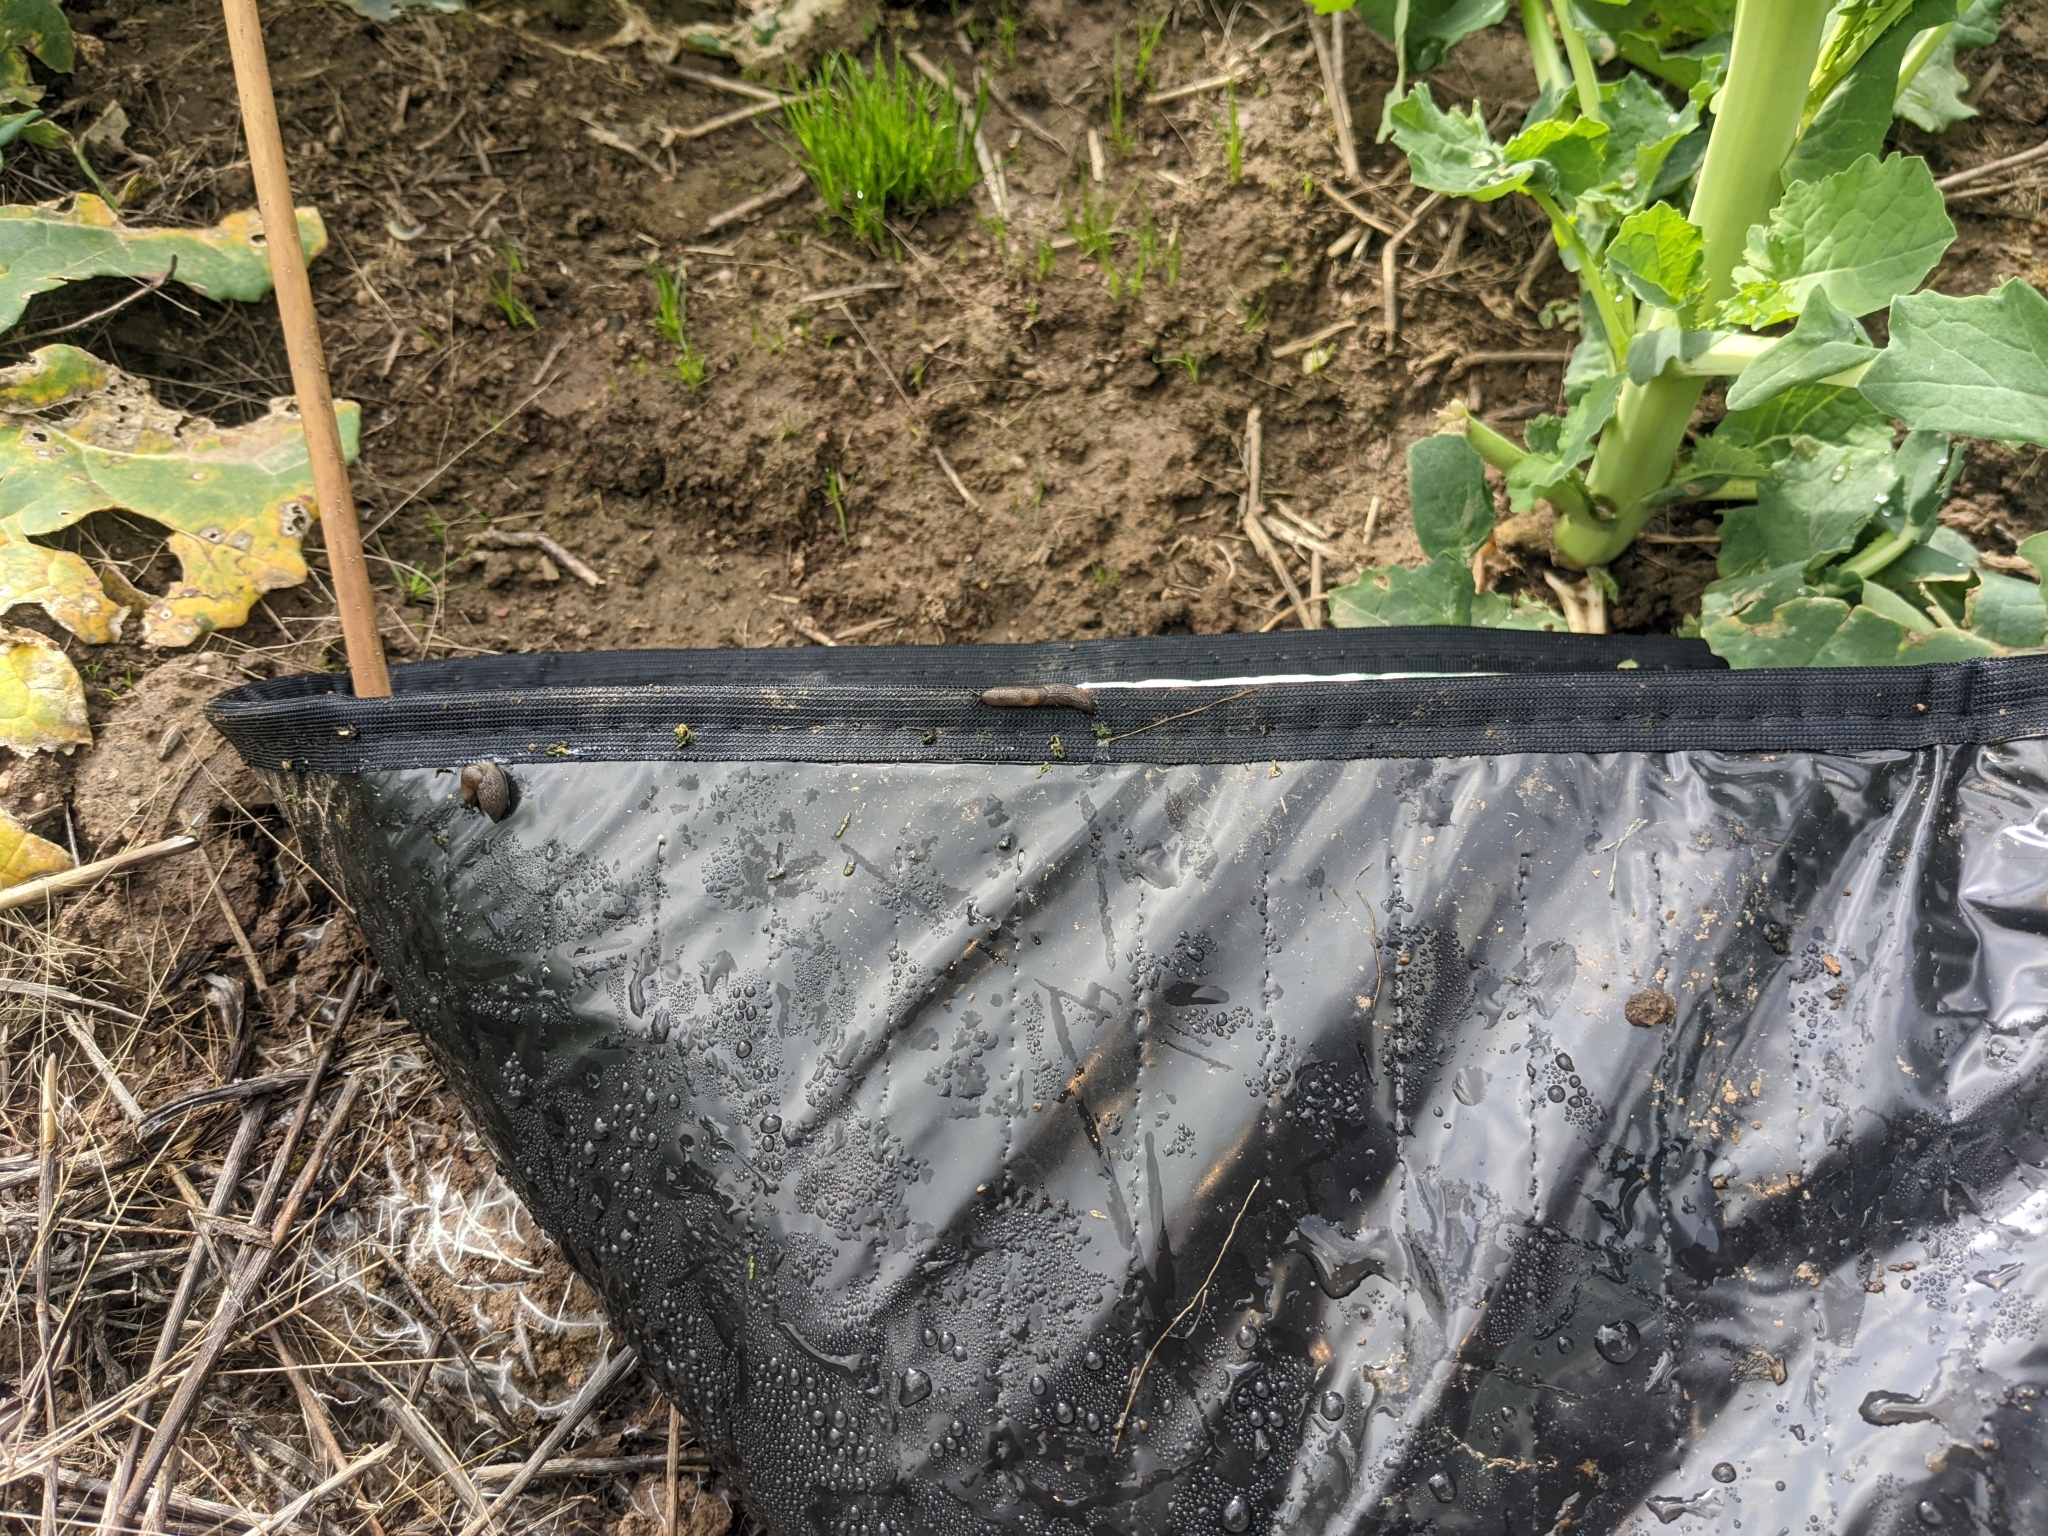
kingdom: Animalia
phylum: Mollusca
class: Gastropoda
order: Stylommatophora
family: Agriolimacidae
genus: Deroceras
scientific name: Deroceras invadens
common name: Caruana's slug
